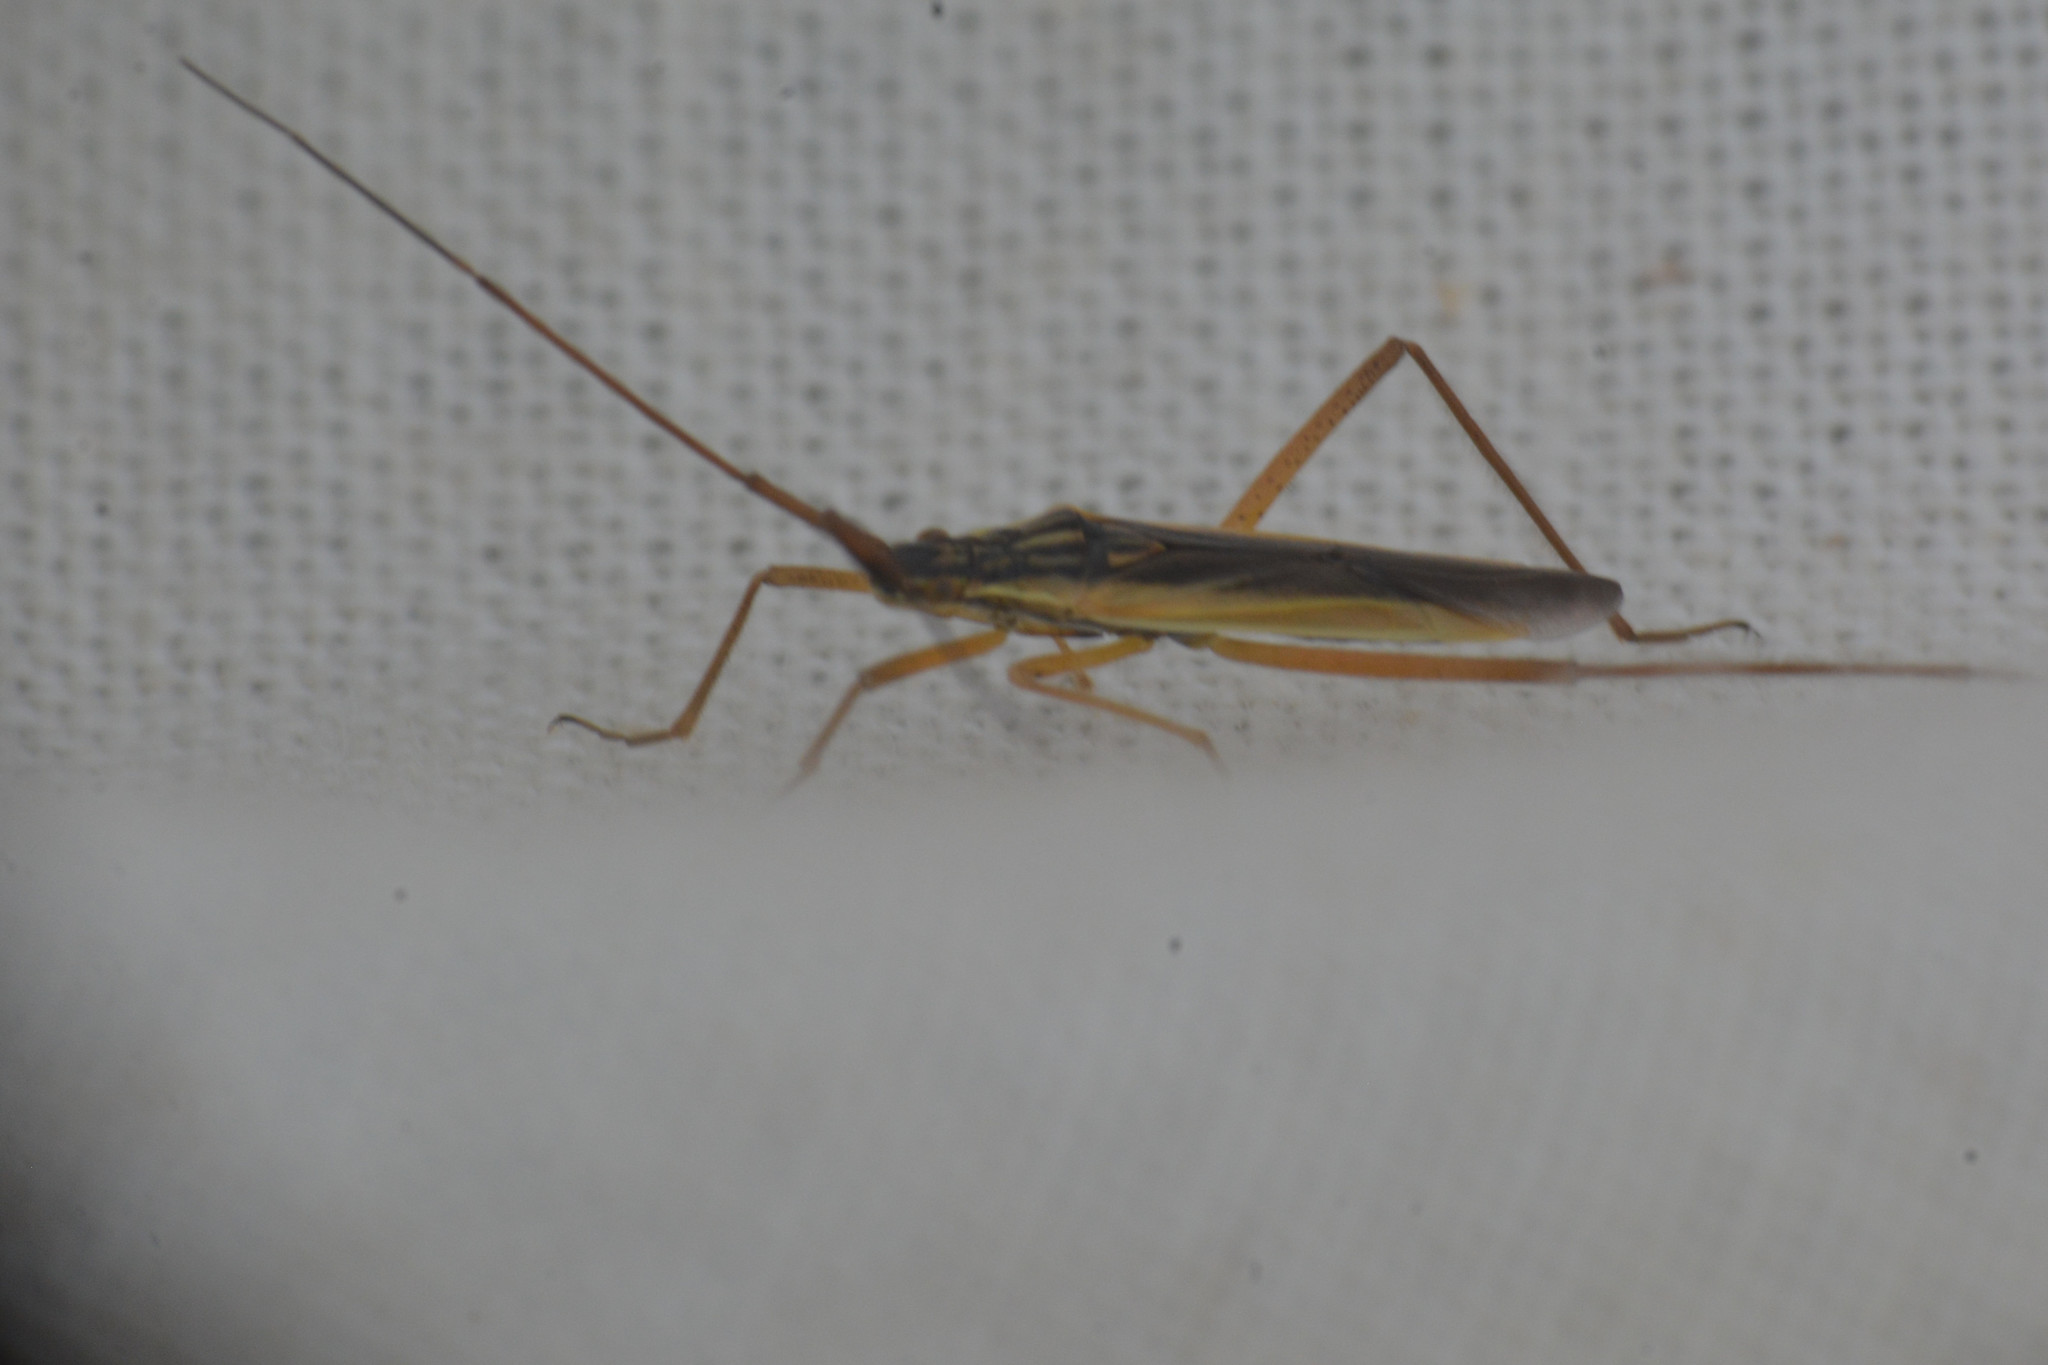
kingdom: Animalia
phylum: Arthropoda
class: Insecta
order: Hemiptera
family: Miridae
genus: Notostira
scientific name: Notostira elongata
